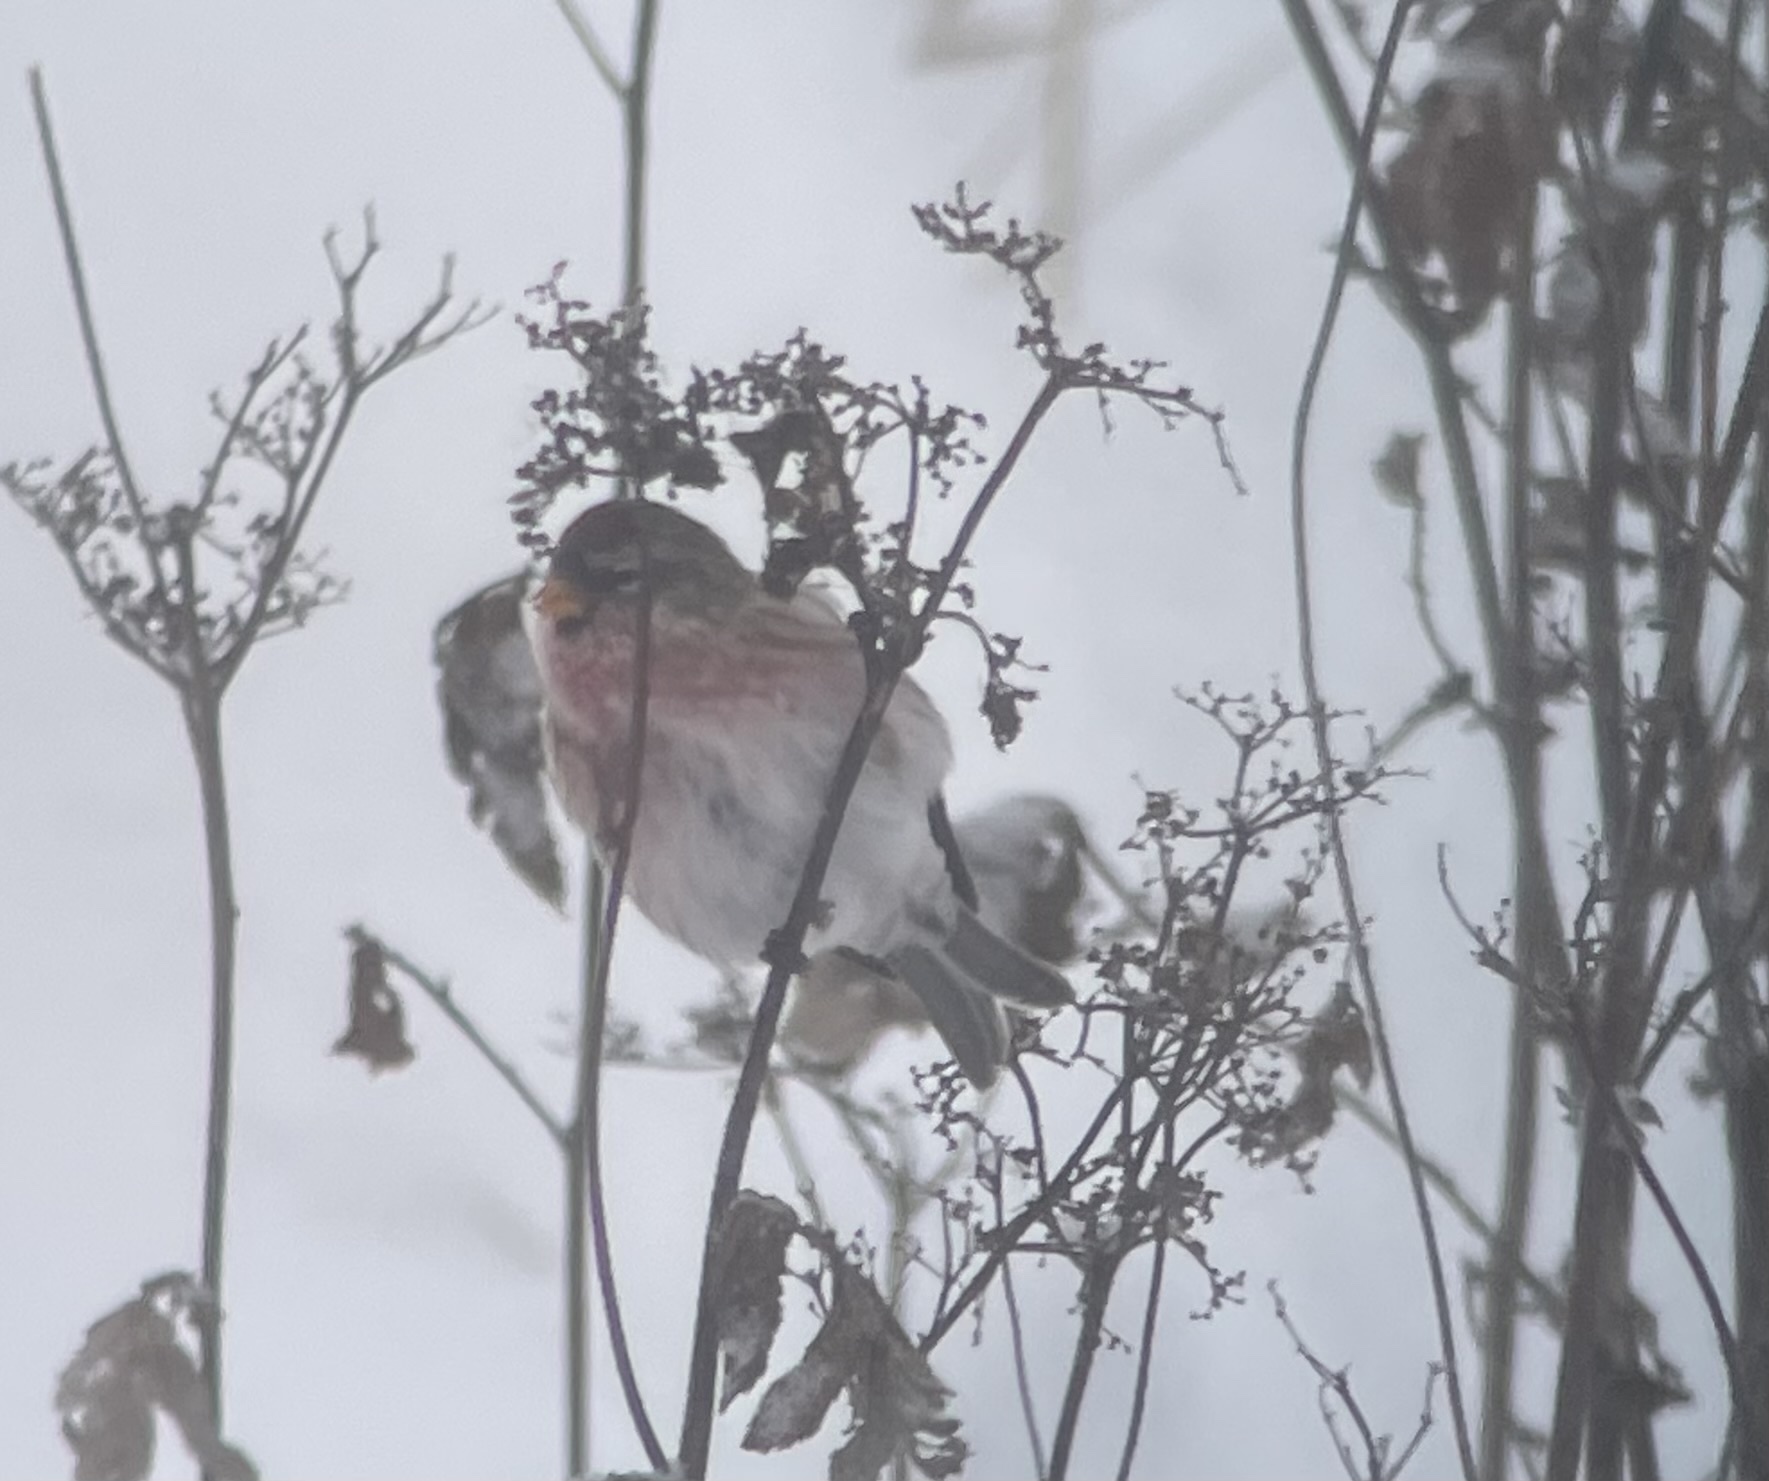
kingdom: Animalia
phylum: Chordata
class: Aves
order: Passeriformes
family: Fringillidae
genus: Acanthis
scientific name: Acanthis flammea
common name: Common redpoll
